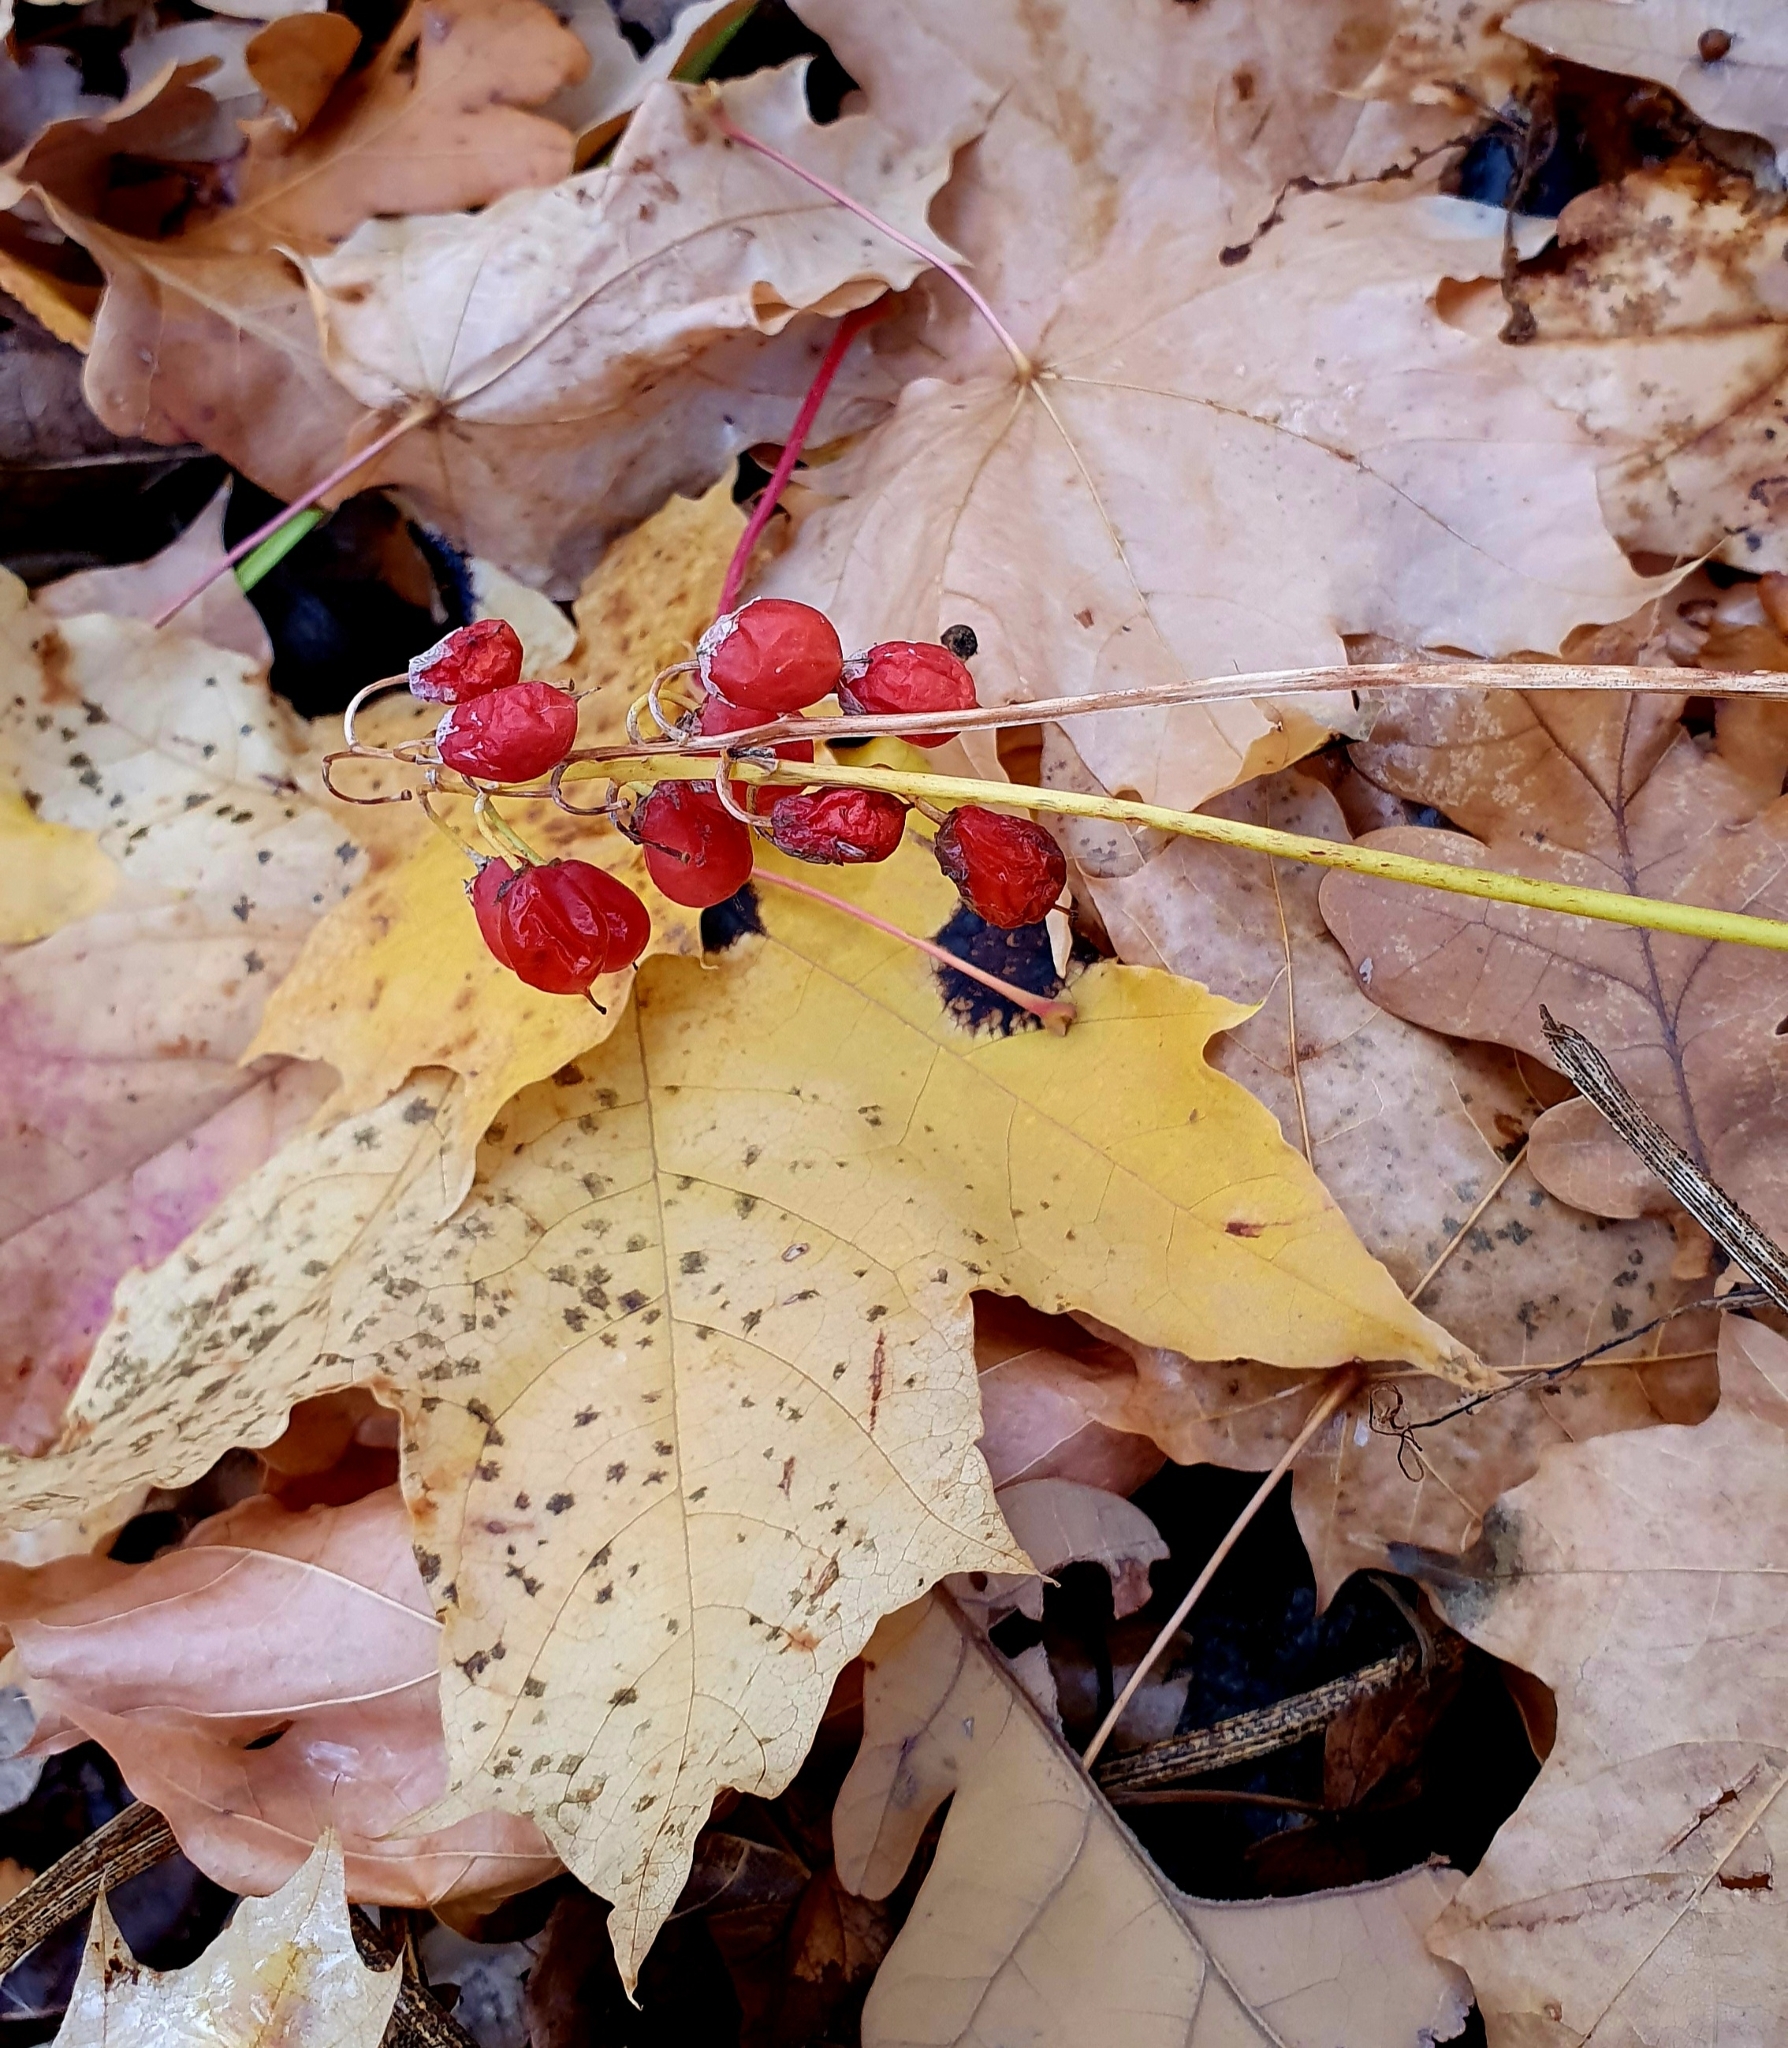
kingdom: Plantae
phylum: Tracheophyta
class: Liliopsida
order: Asparagales
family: Asparagaceae
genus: Convallaria
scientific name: Convallaria majalis
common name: Lily-of-the-valley
